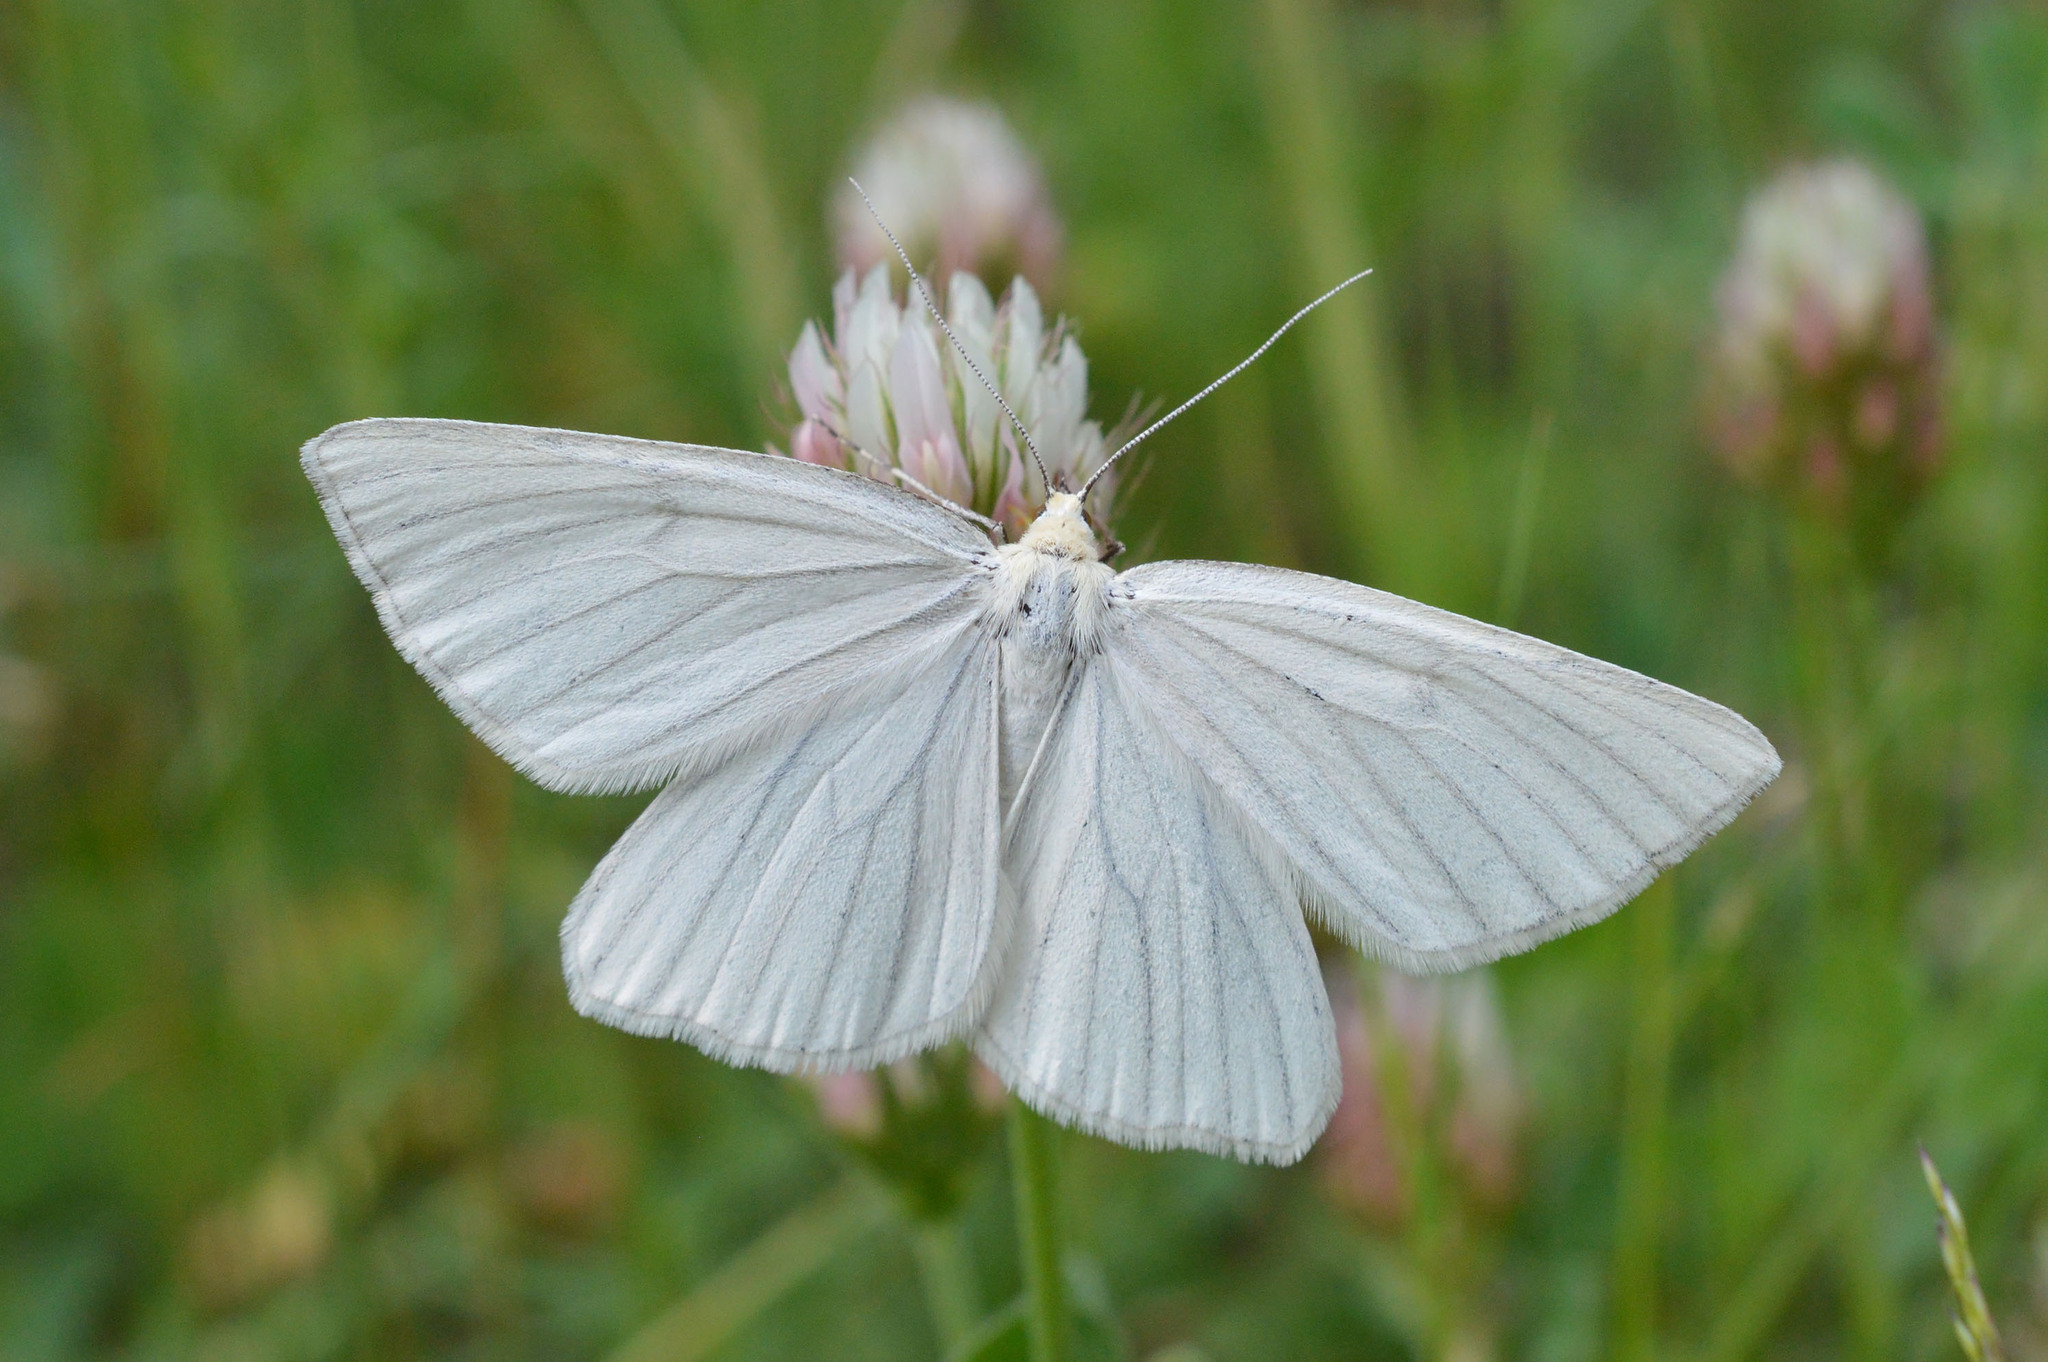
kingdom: Animalia
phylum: Arthropoda
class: Insecta
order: Lepidoptera
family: Geometridae
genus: Siona
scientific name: Siona lineata
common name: Black-veined moth
